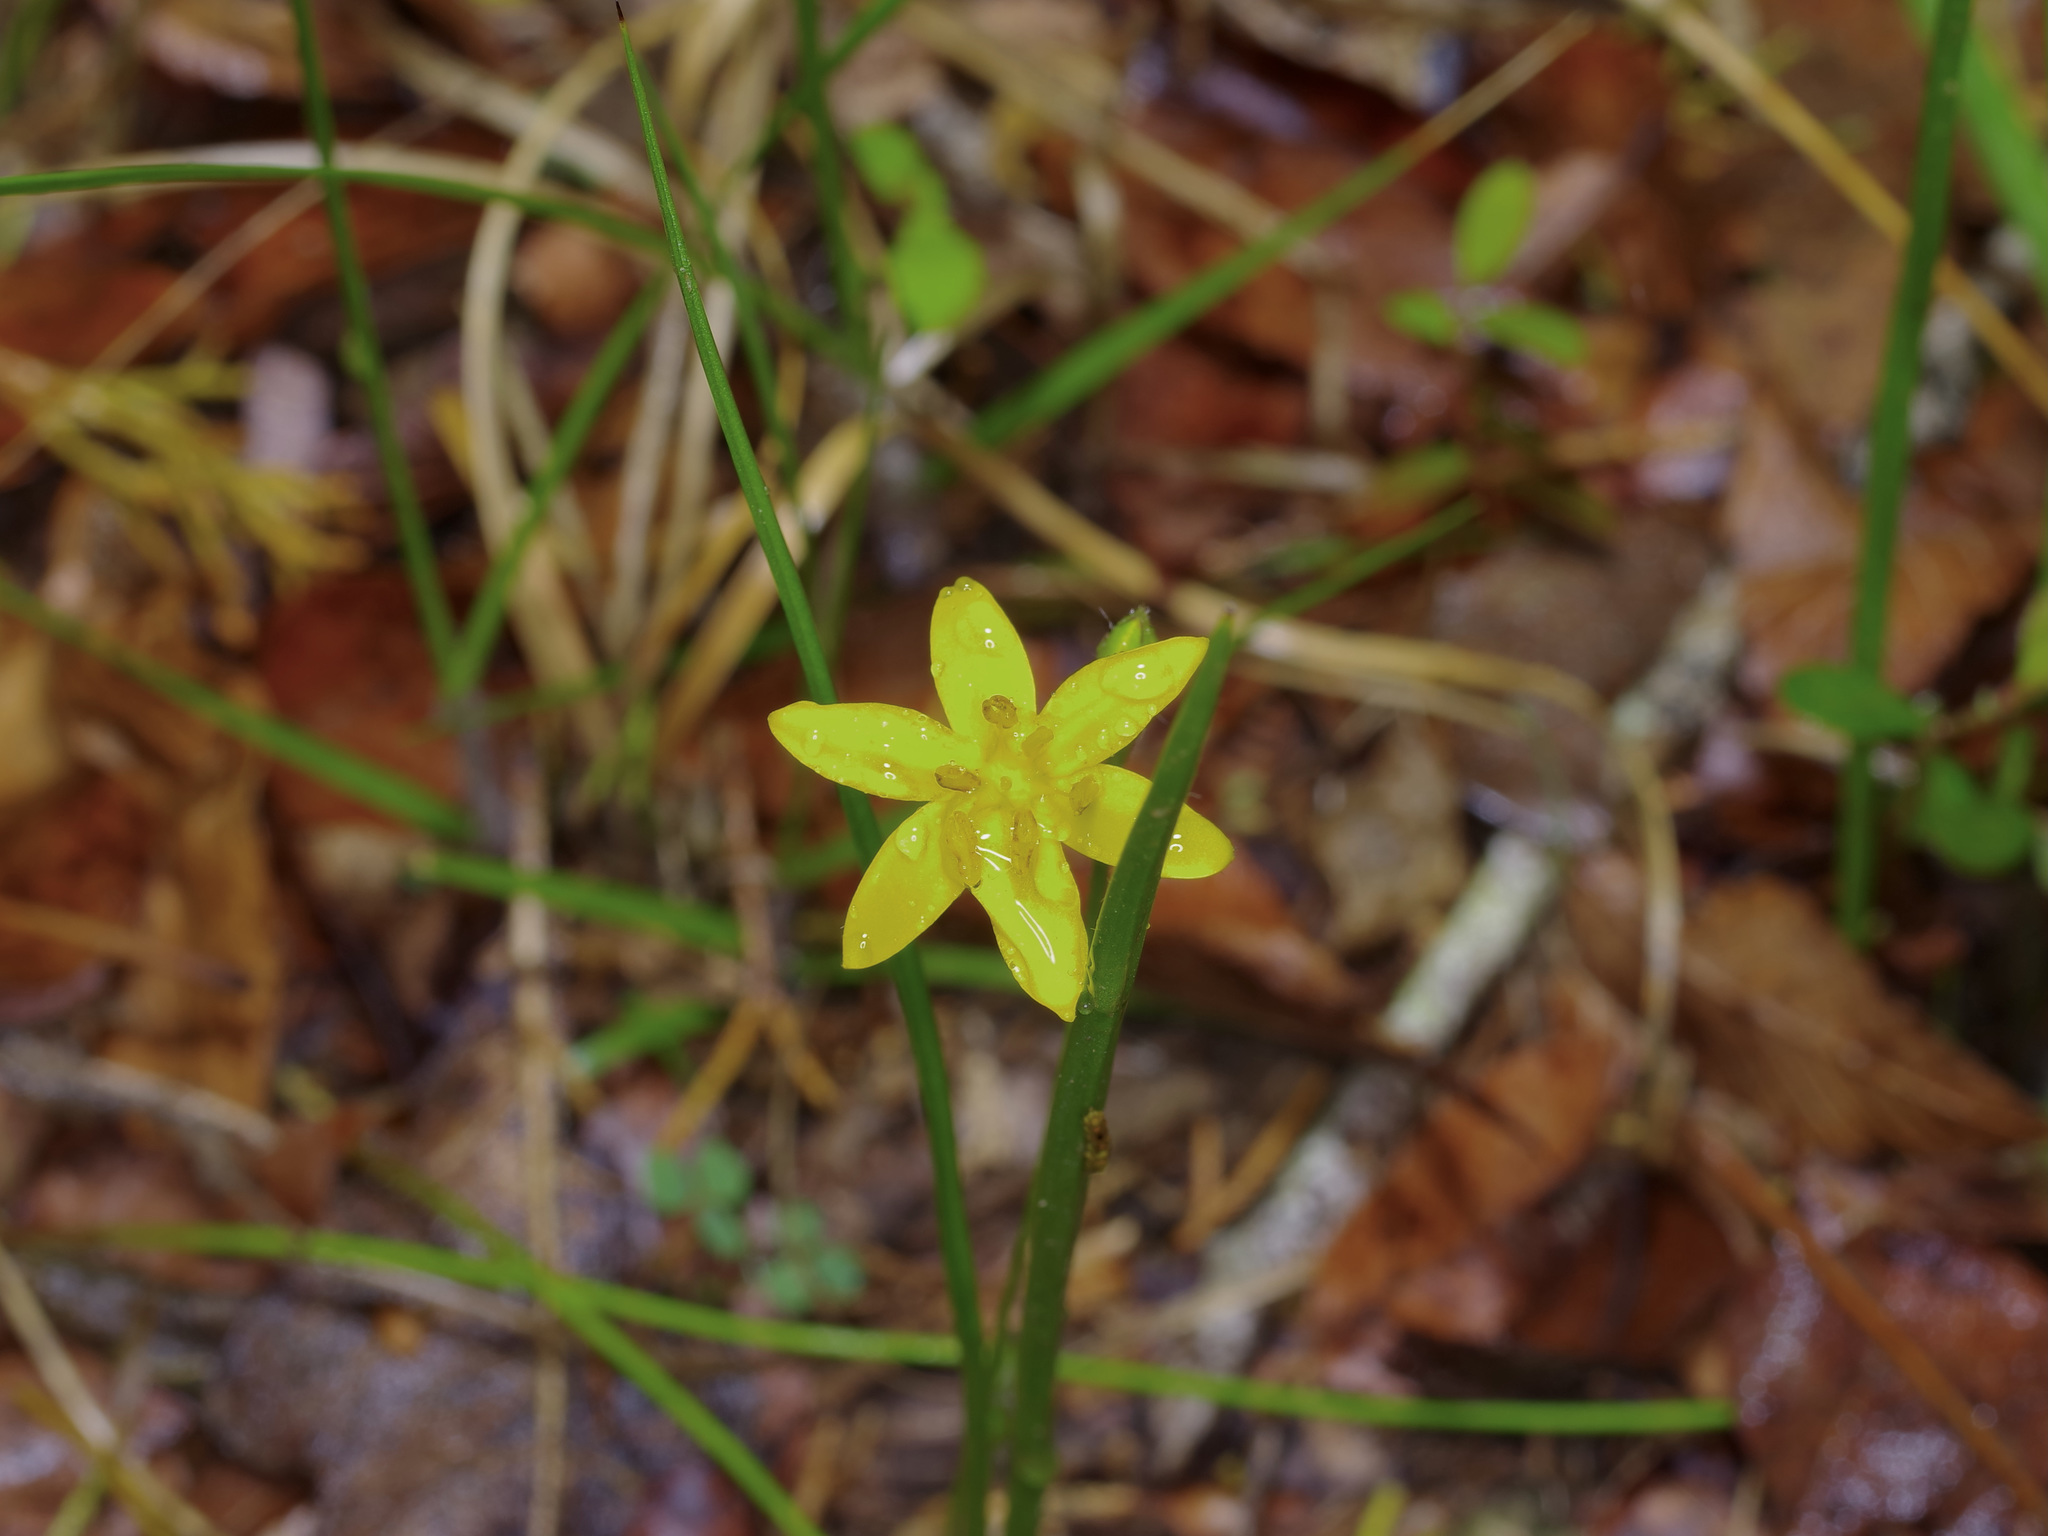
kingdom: Plantae
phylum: Tracheophyta
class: Liliopsida
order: Asparagales
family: Hypoxidaceae
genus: Hypoxis
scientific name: Hypoxis hirsuta
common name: Common goldstar
